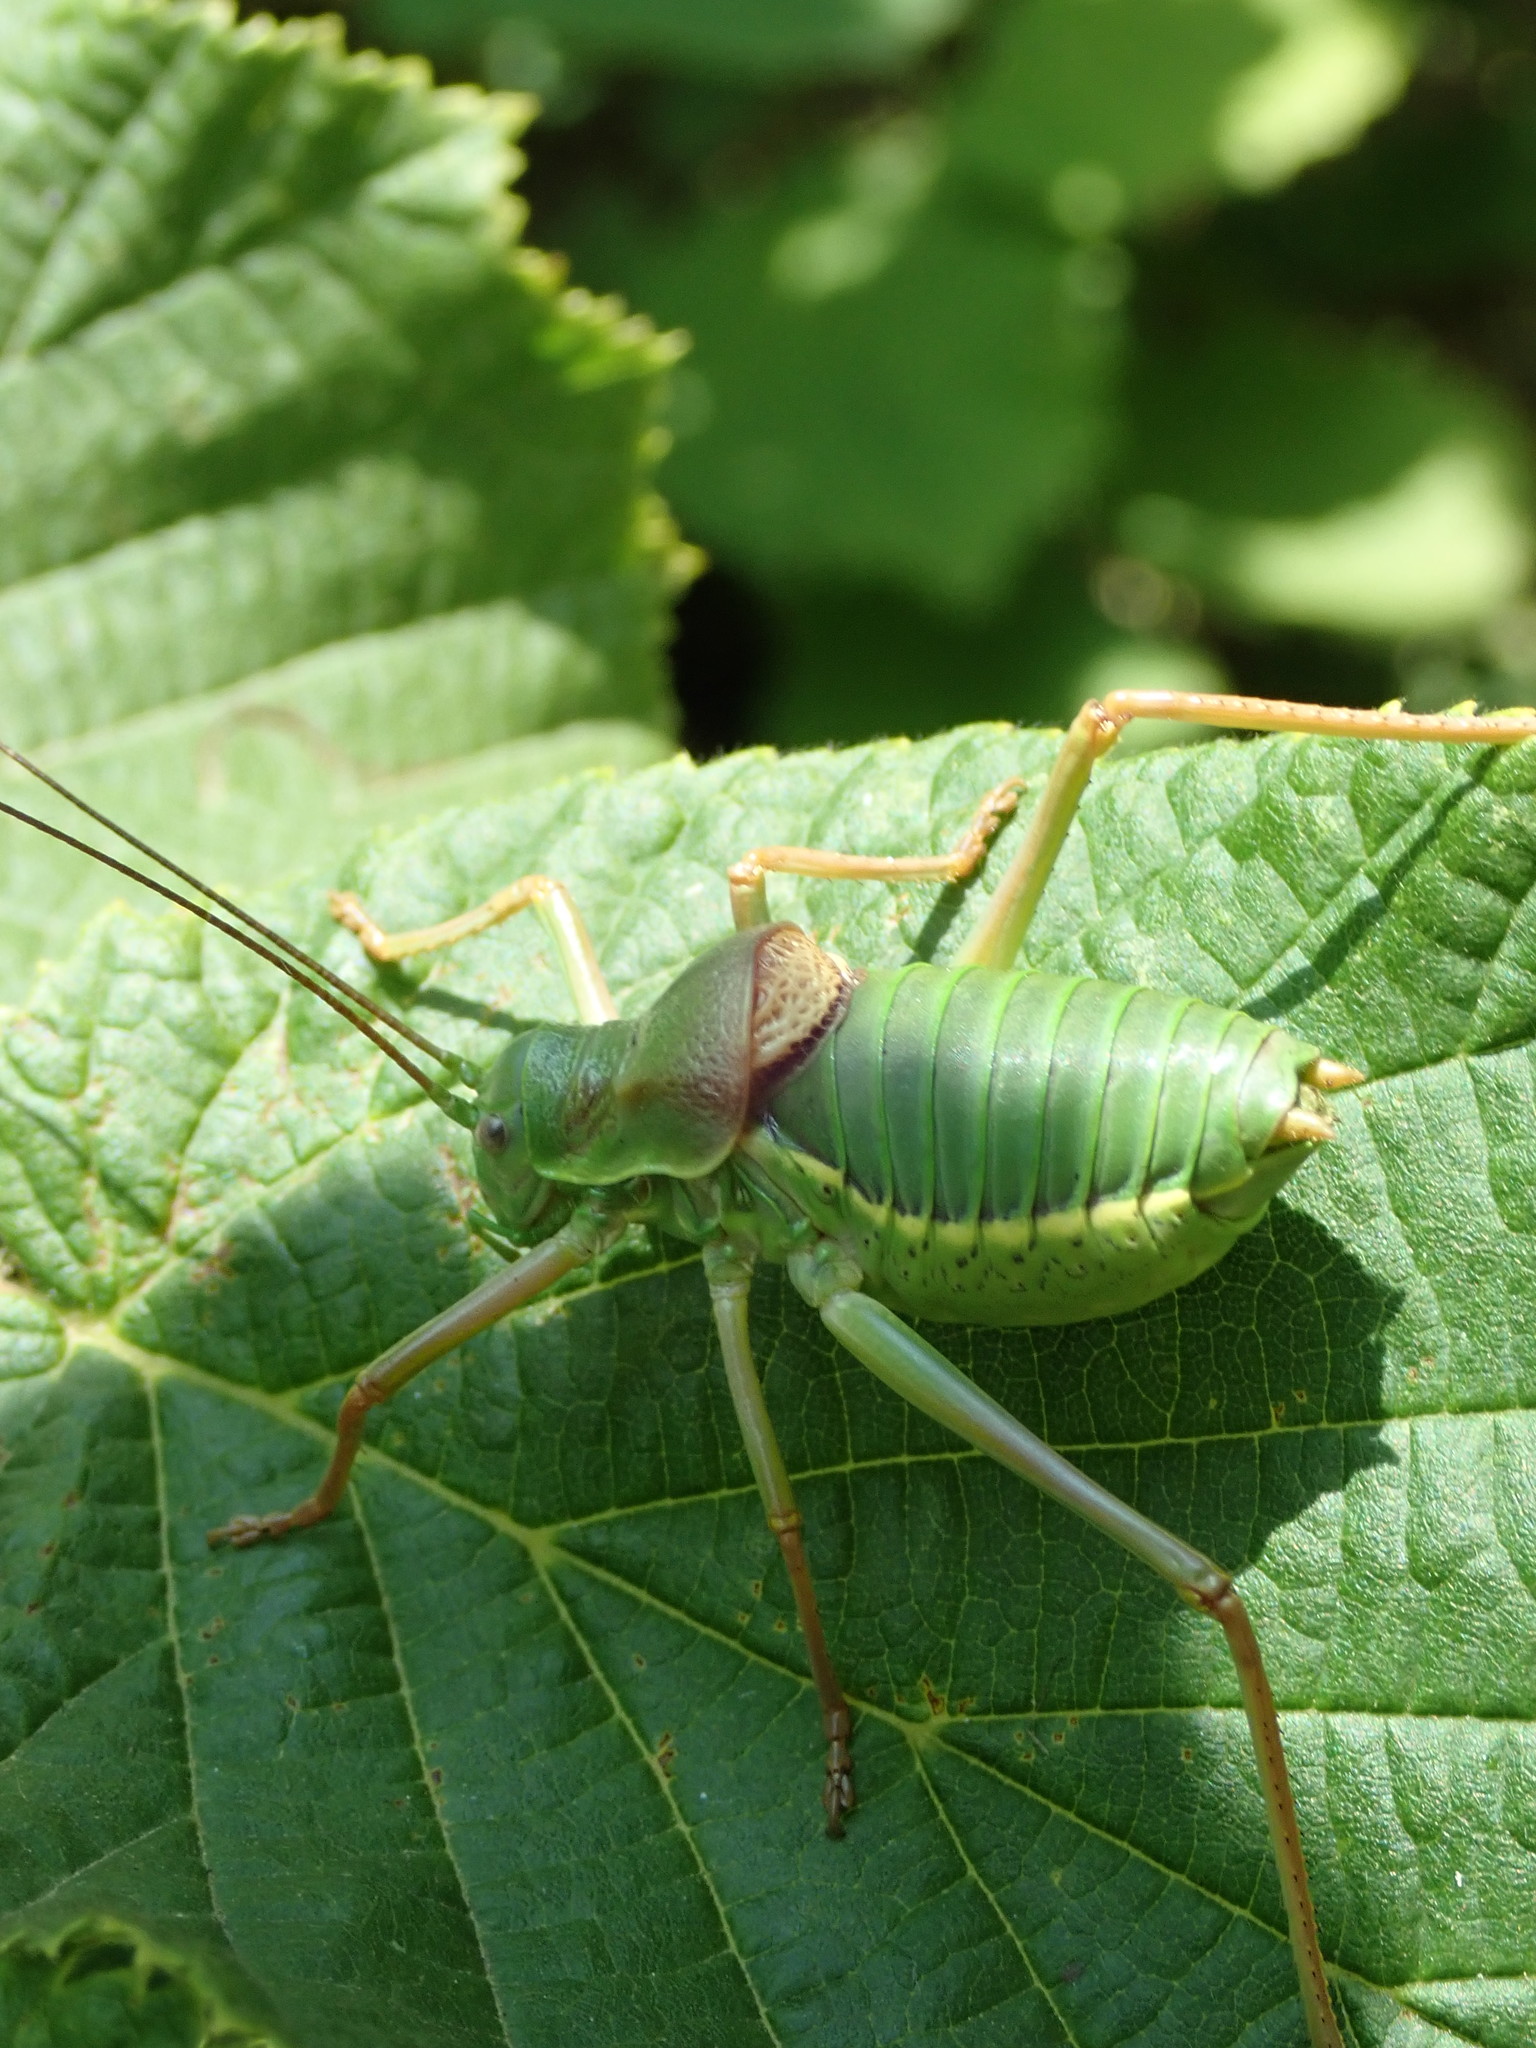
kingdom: Animalia
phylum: Arthropoda
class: Insecta
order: Orthoptera
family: Tettigoniidae
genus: Ephippiger
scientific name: Ephippiger diurnus
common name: Western saddle bush-cricket
